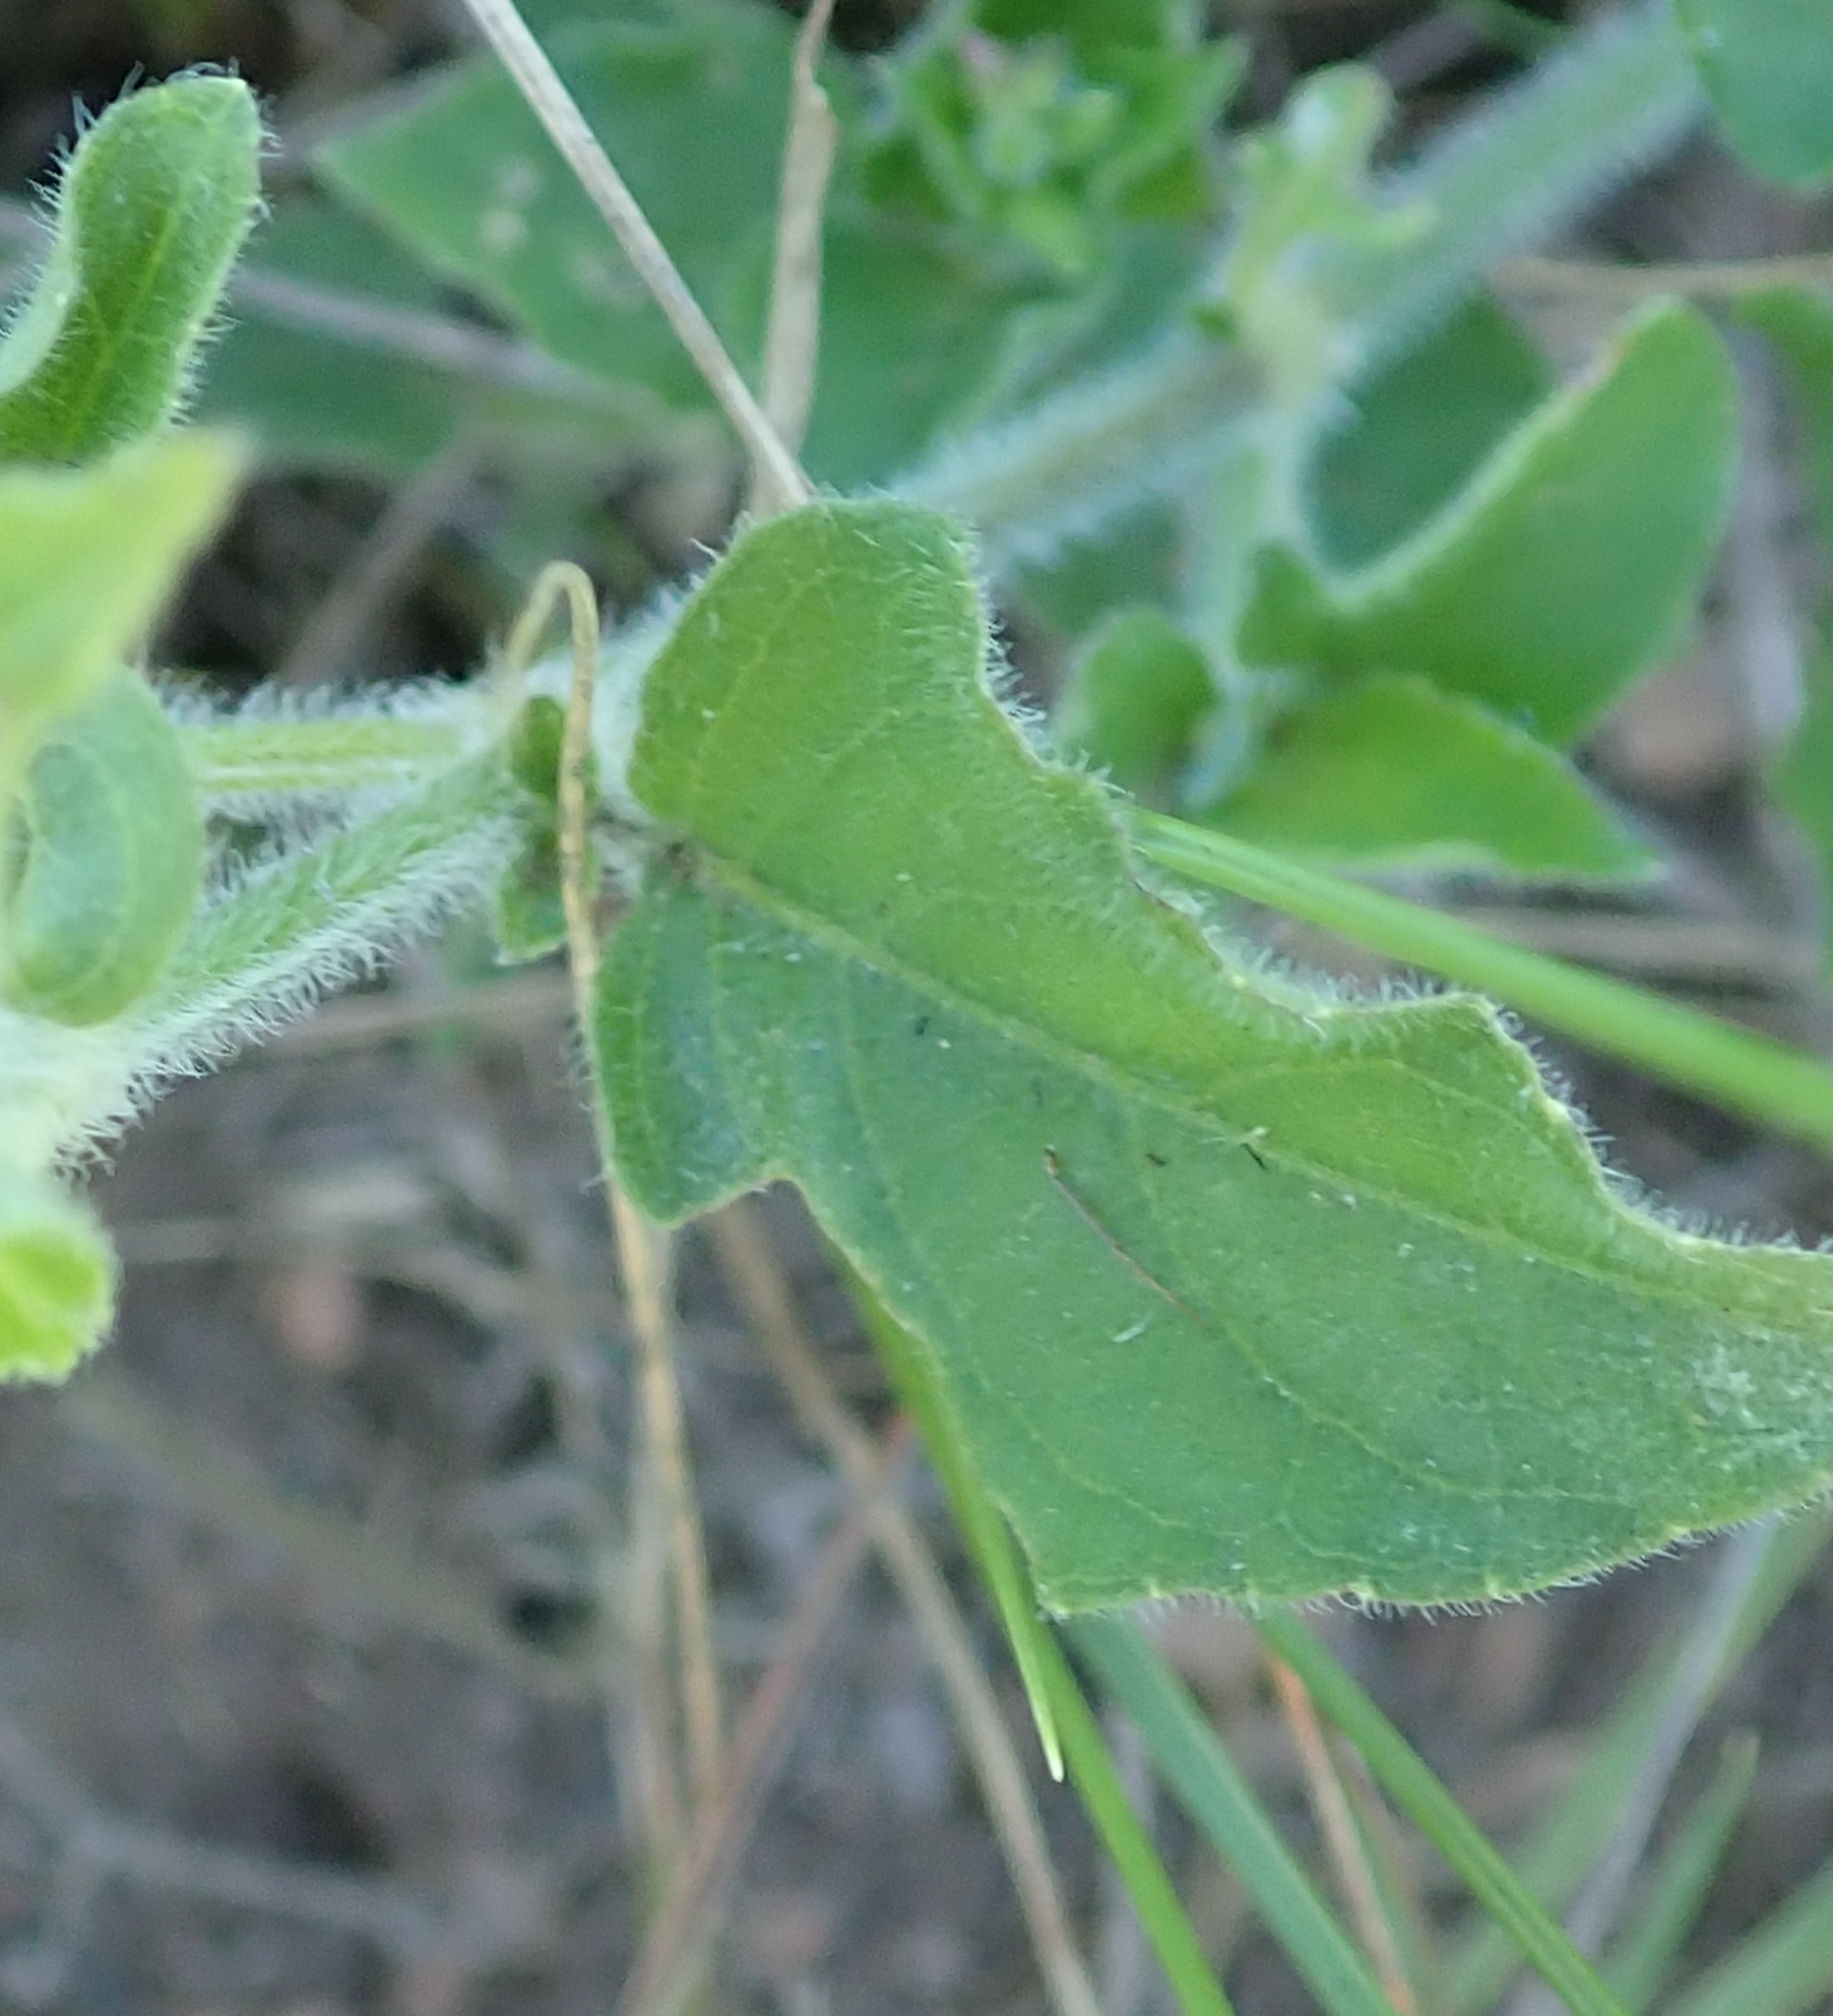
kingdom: Plantae
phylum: Tracheophyta
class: Magnoliopsida
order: Lamiales
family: Acanthaceae
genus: Asystasia
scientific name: Asystasia intrusa
